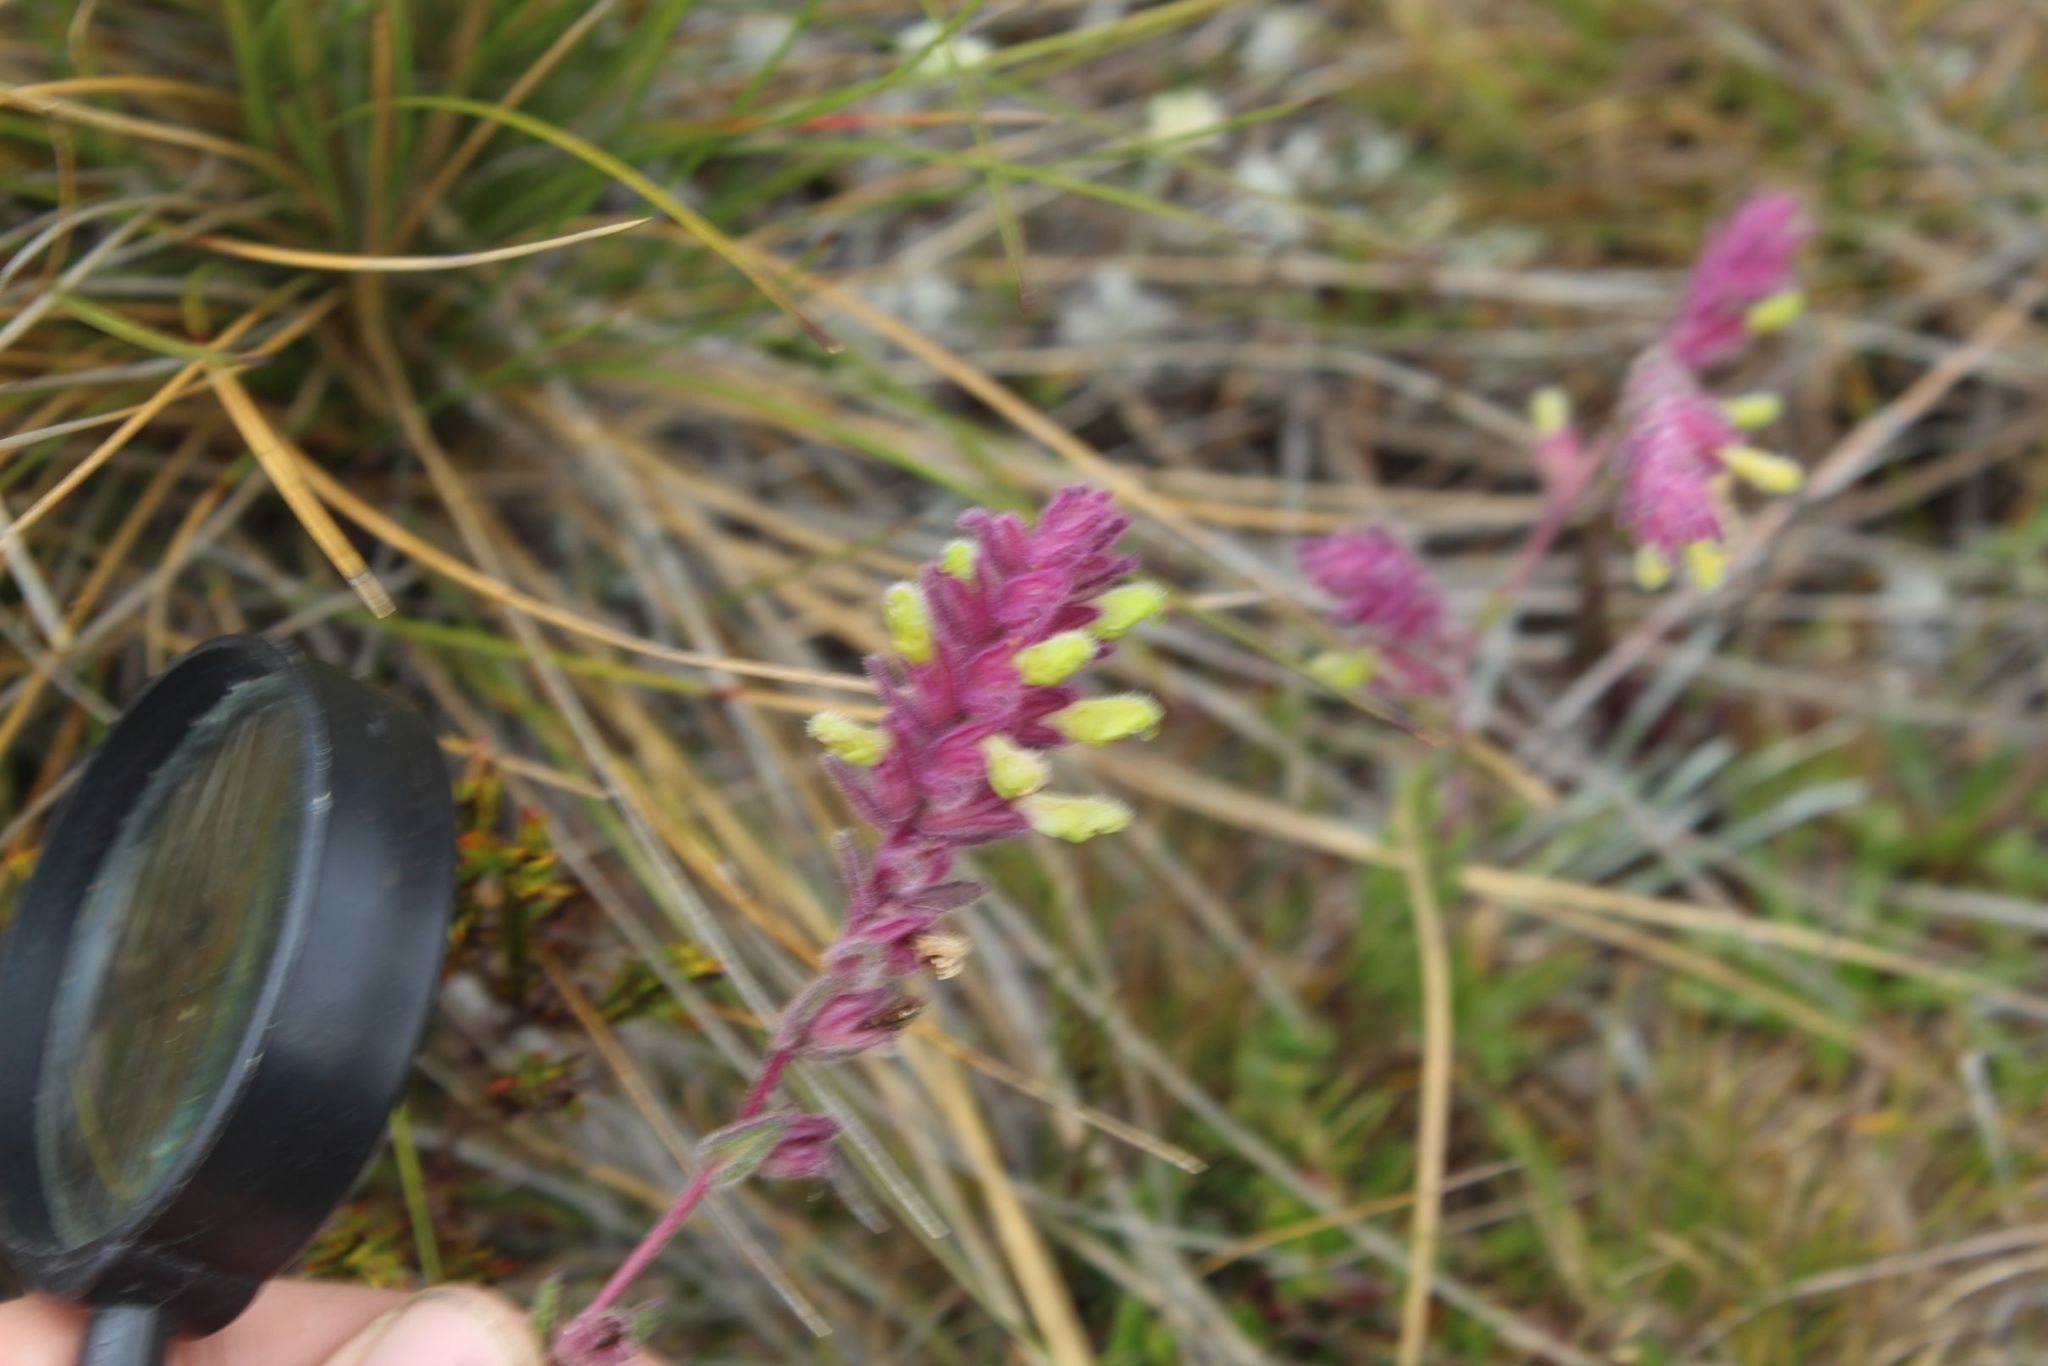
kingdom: Plantae
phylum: Tracheophyta
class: Magnoliopsida
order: Lamiales
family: Orobanchaceae
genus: Neobartsia
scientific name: Neobartsia laniflora
